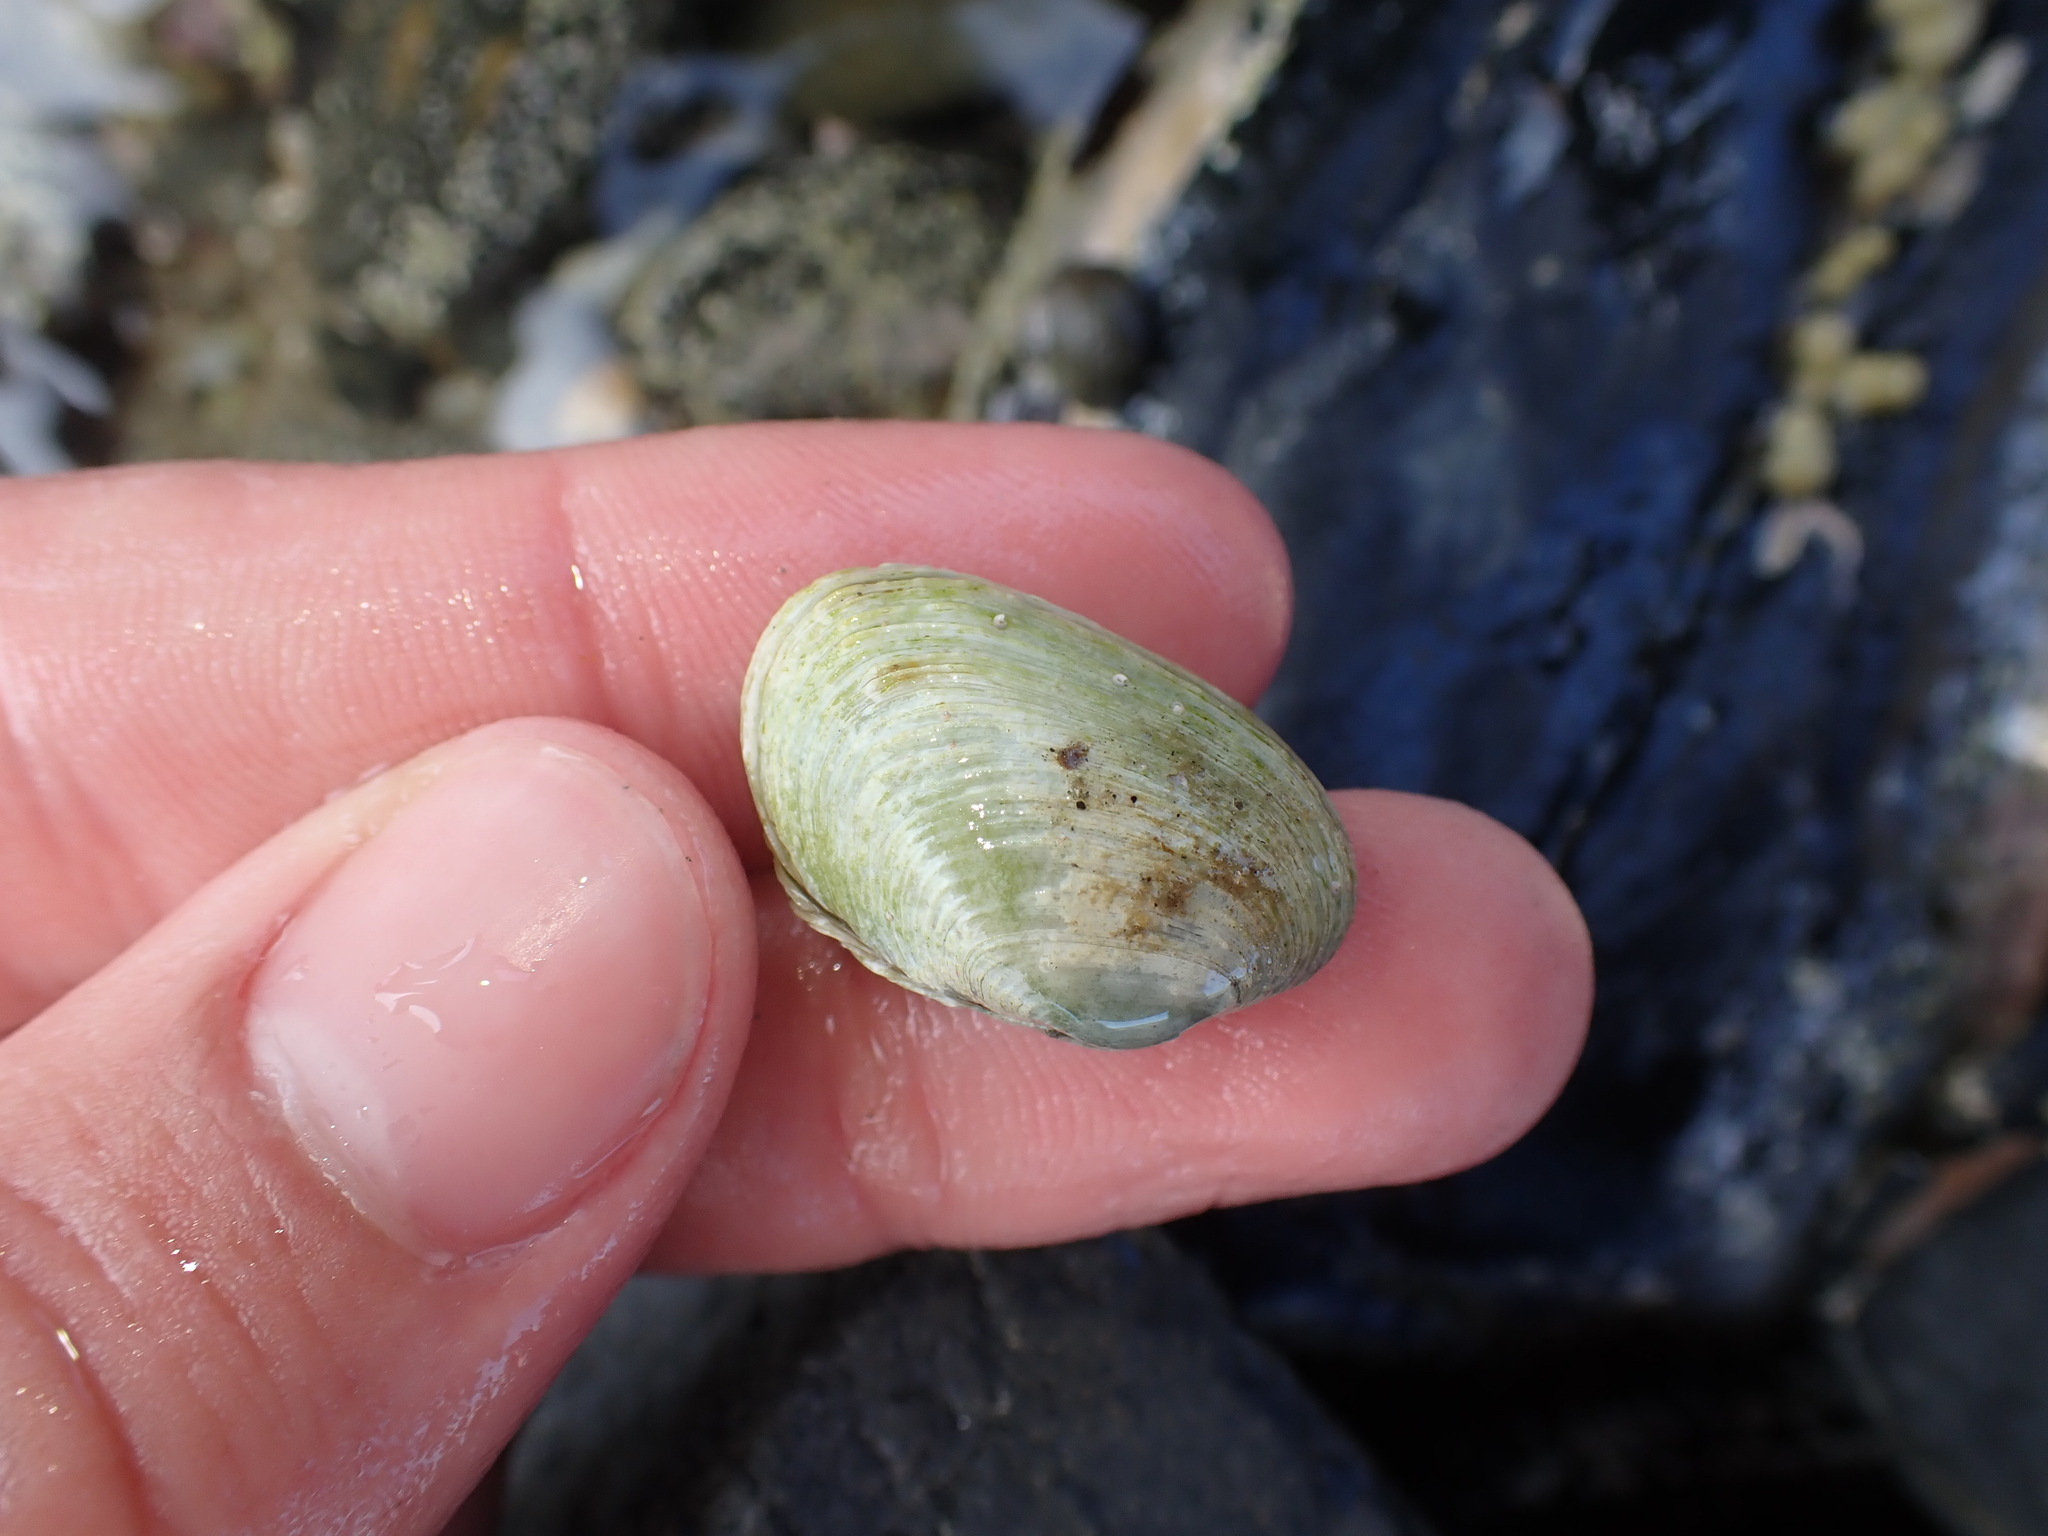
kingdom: Animalia
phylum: Mollusca
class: Bivalvia
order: Venerida
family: Veneridae
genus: Irus
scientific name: Irus reflexus
